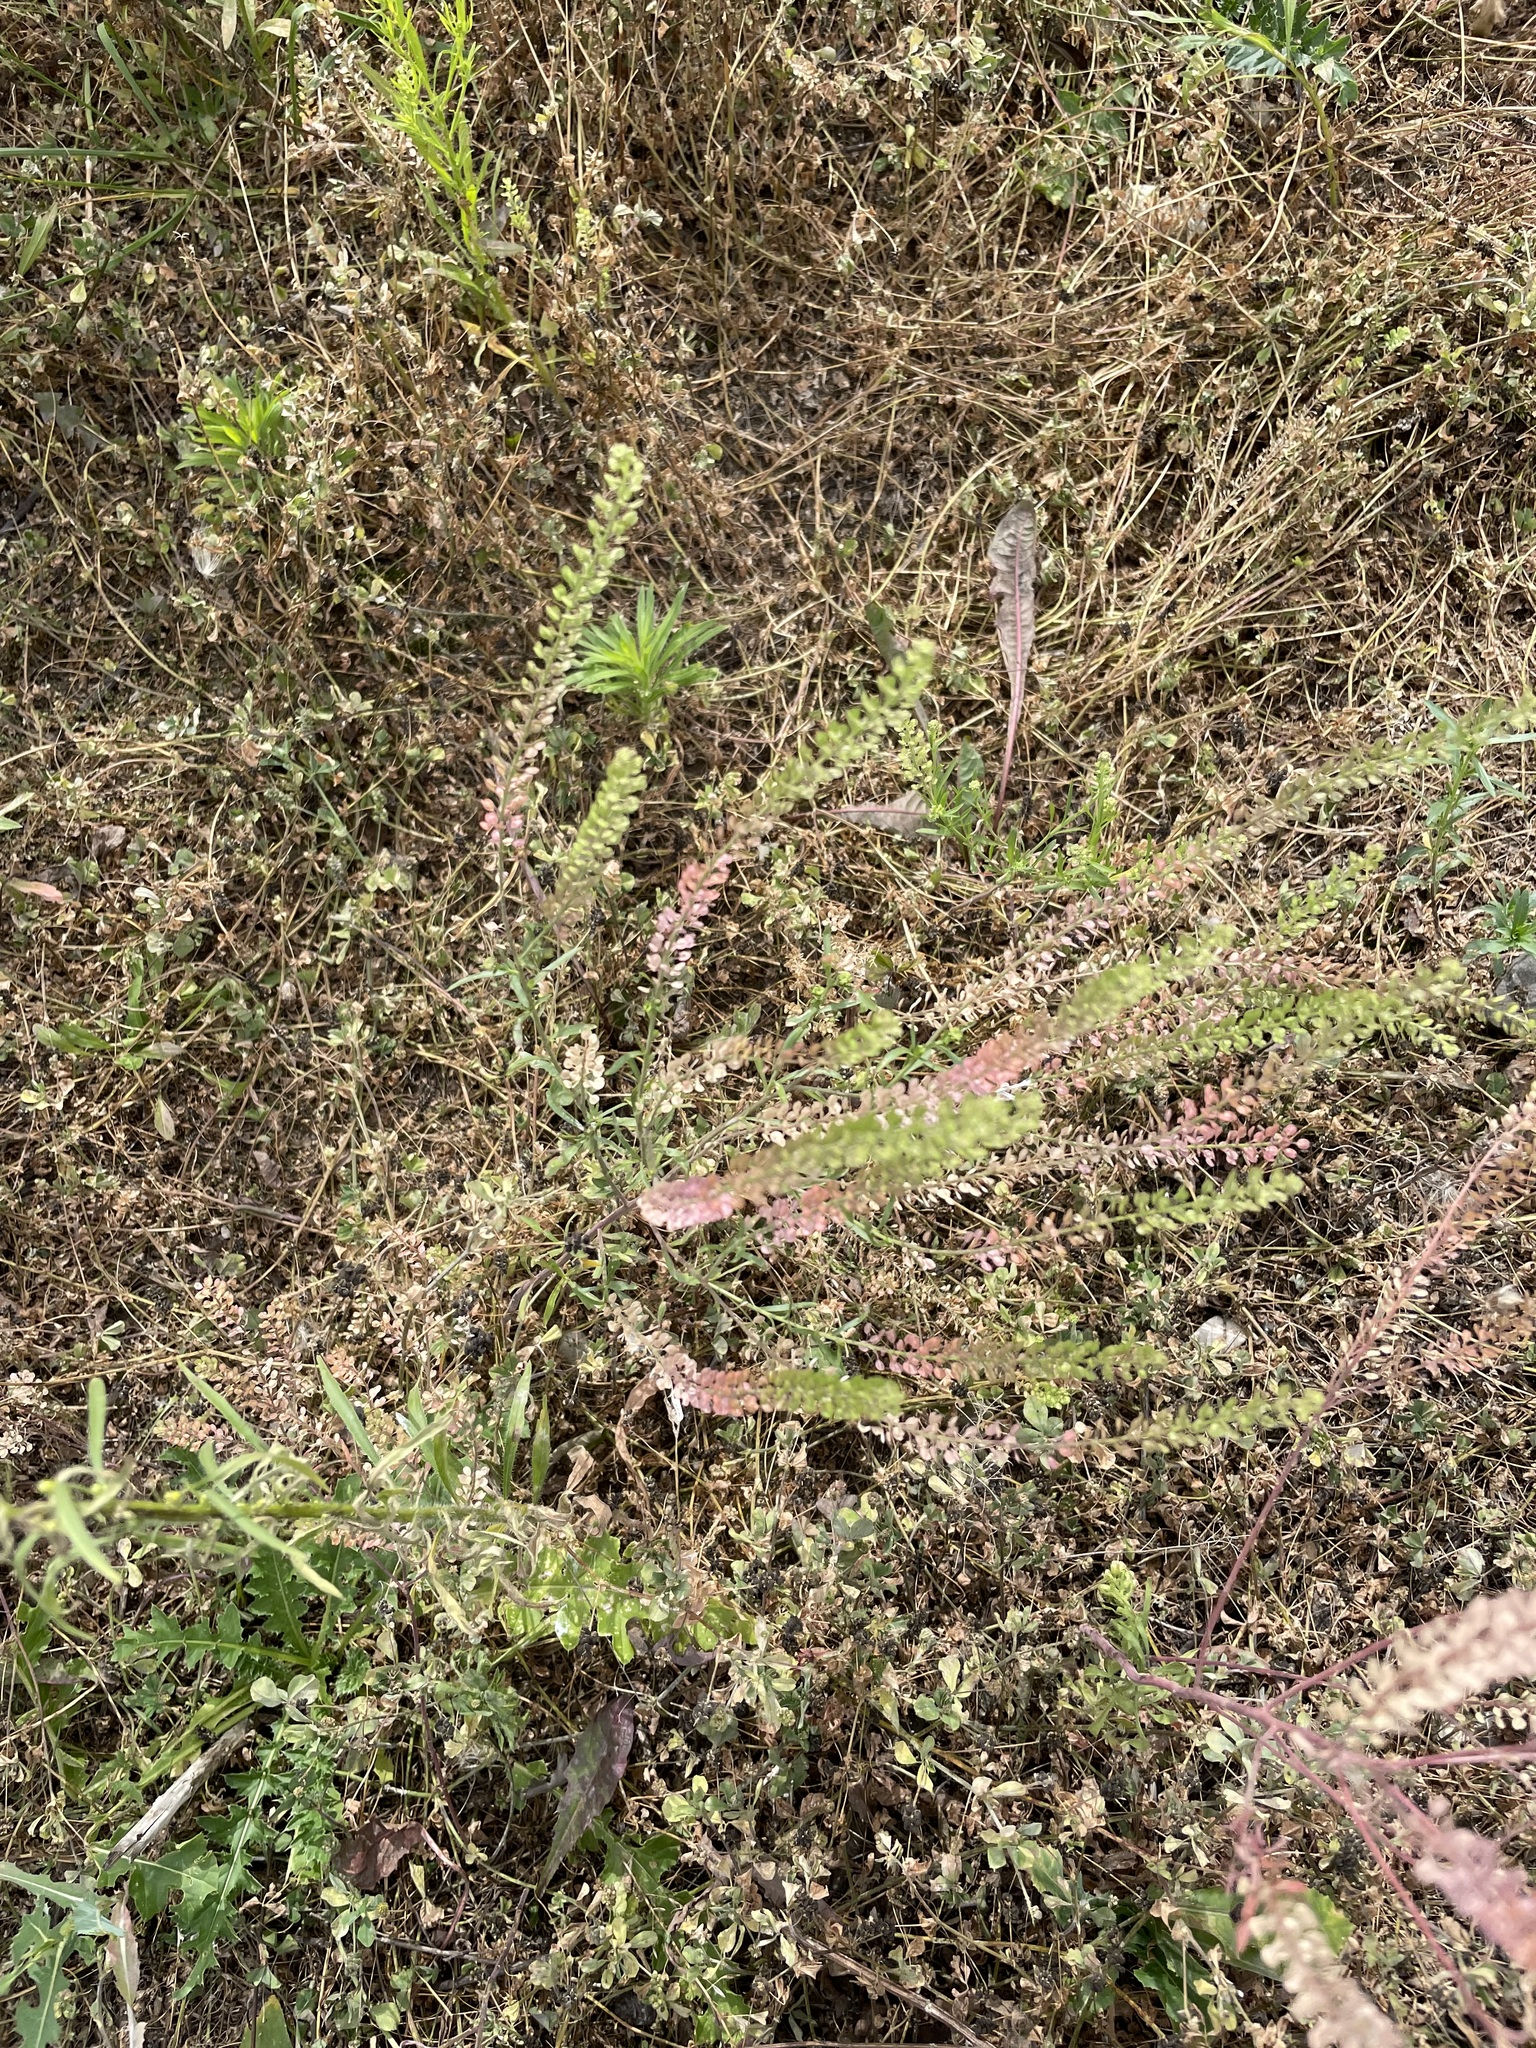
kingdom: Plantae
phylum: Tracheophyta
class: Magnoliopsida
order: Brassicales
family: Brassicaceae
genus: Lepidium
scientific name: Lepidium densiflorum
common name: Miner's pepperwort
